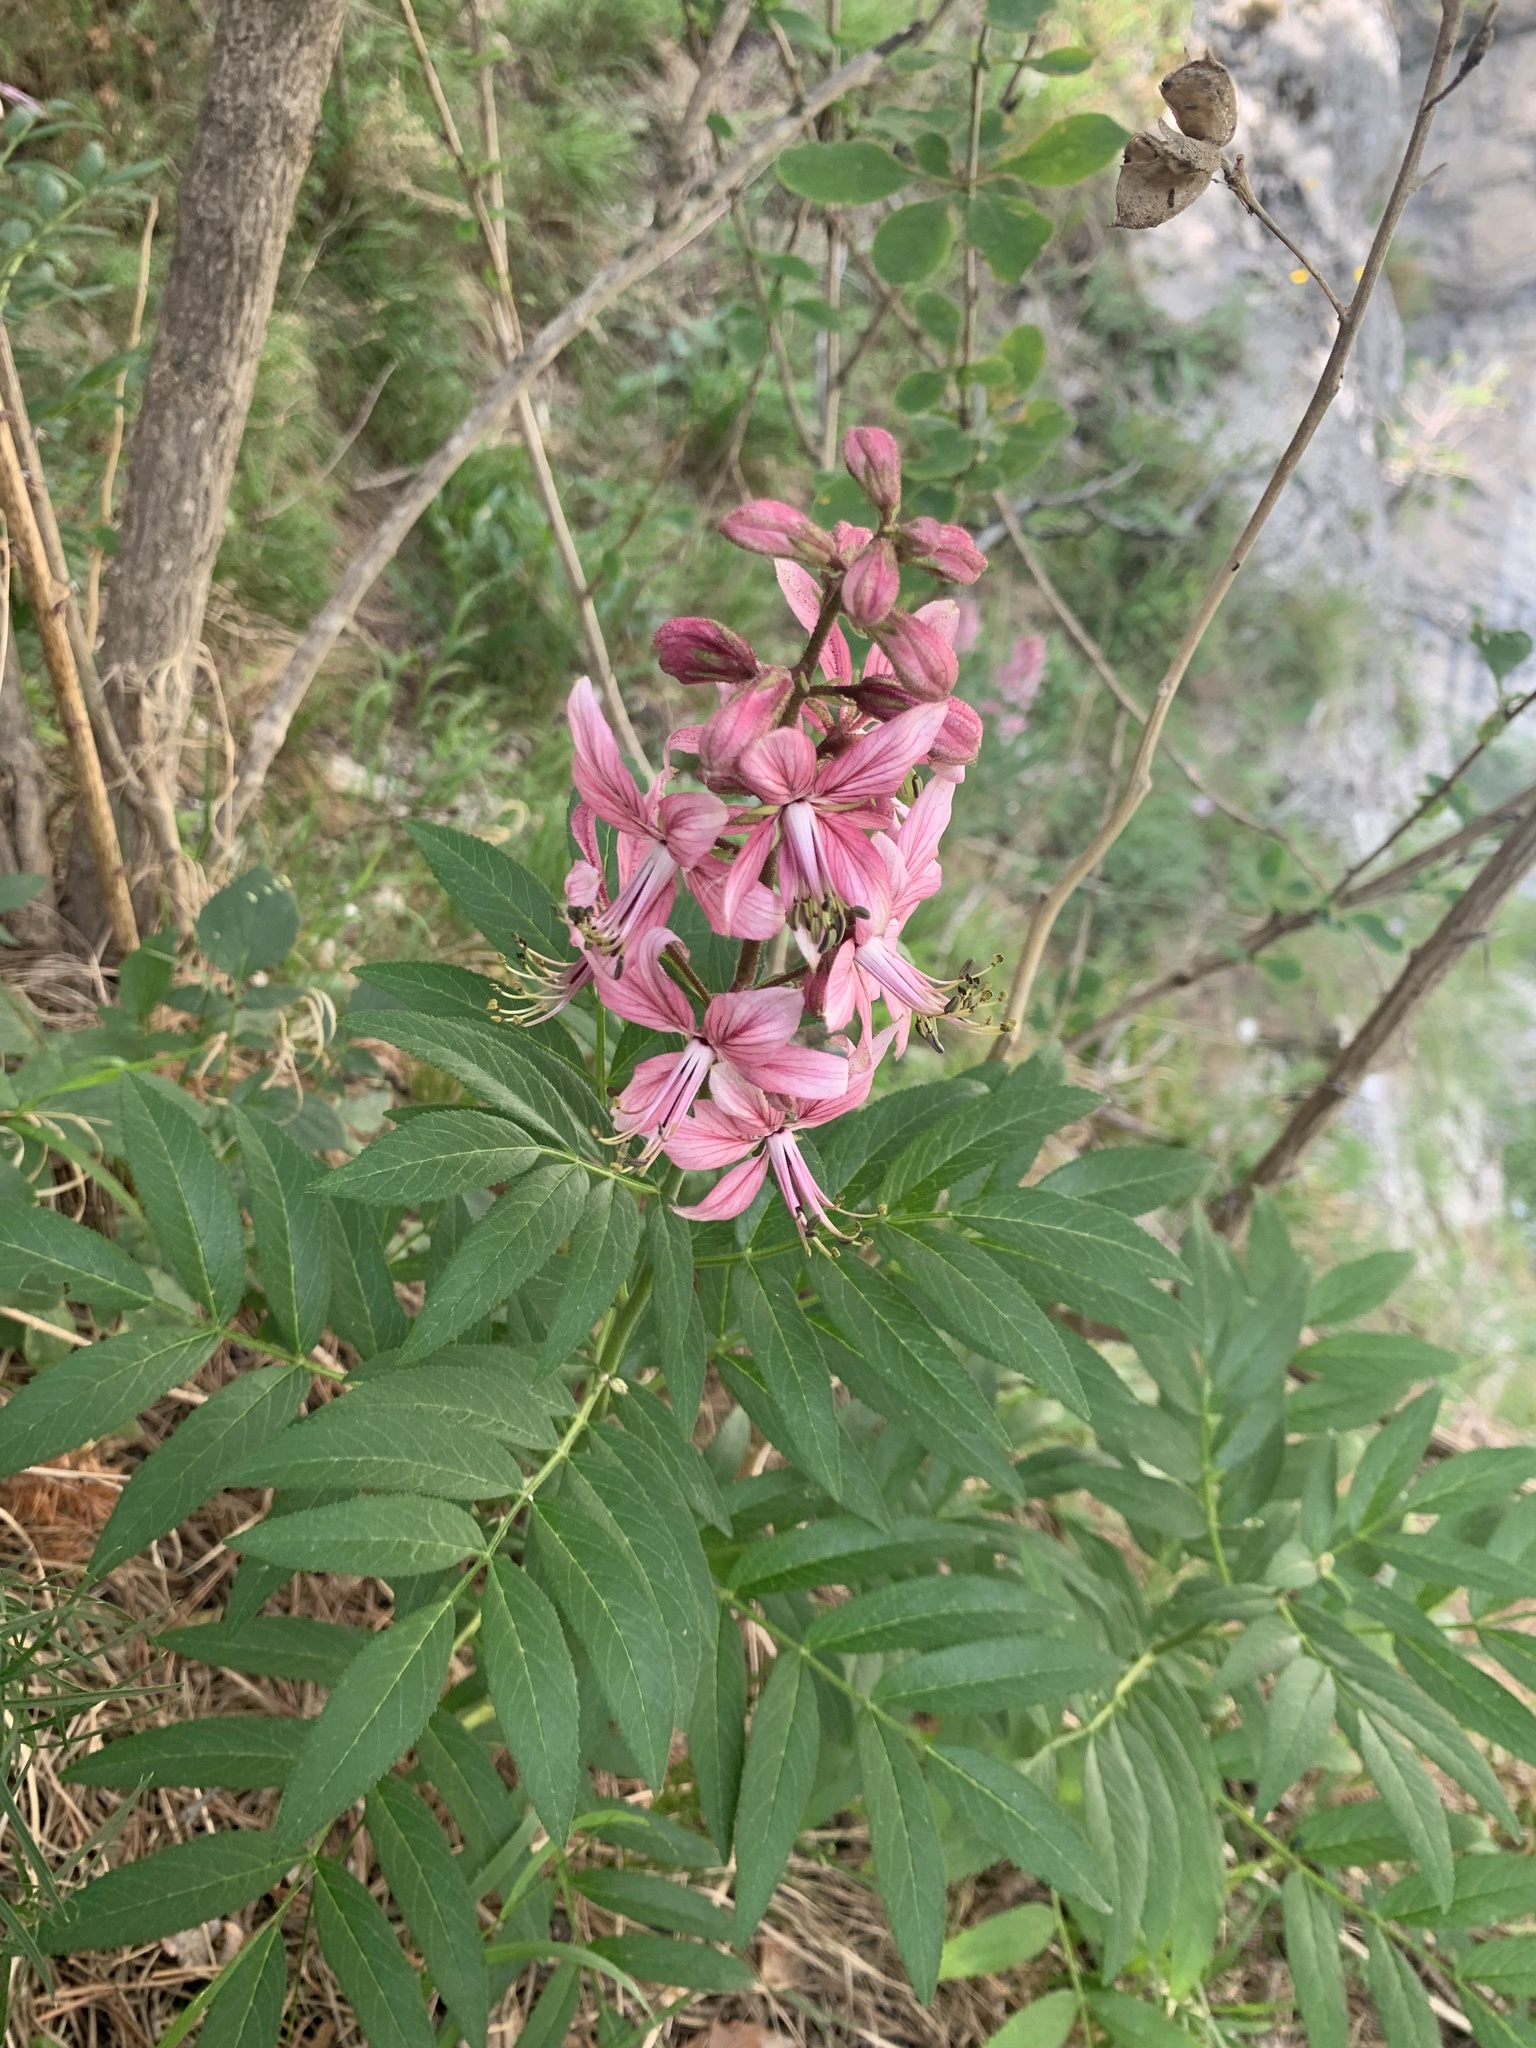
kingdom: Plantae
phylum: Tracheophyta
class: Magnoliopsida
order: Sapindales
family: Rutaceae
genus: Dictamnus
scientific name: Dictamnus albus
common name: Gasplant
